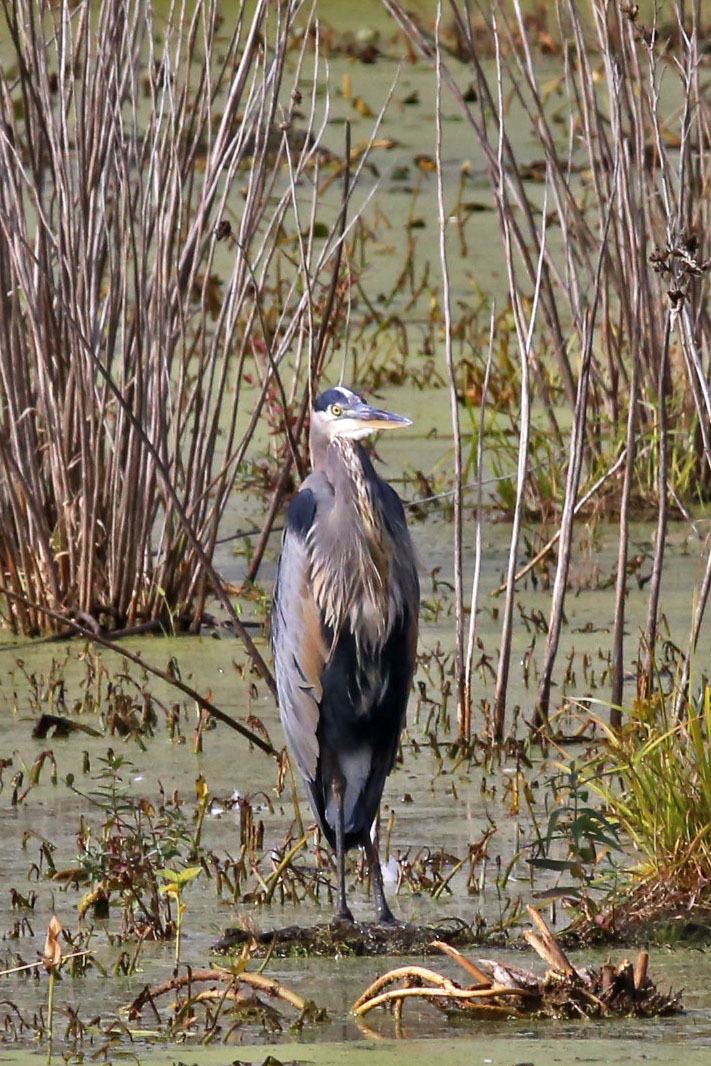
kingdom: Animalia
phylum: Chordata
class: Aves
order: Pelecaniformes
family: Ardeidae
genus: Ardea
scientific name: Ardea herodias
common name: Great blue heron
